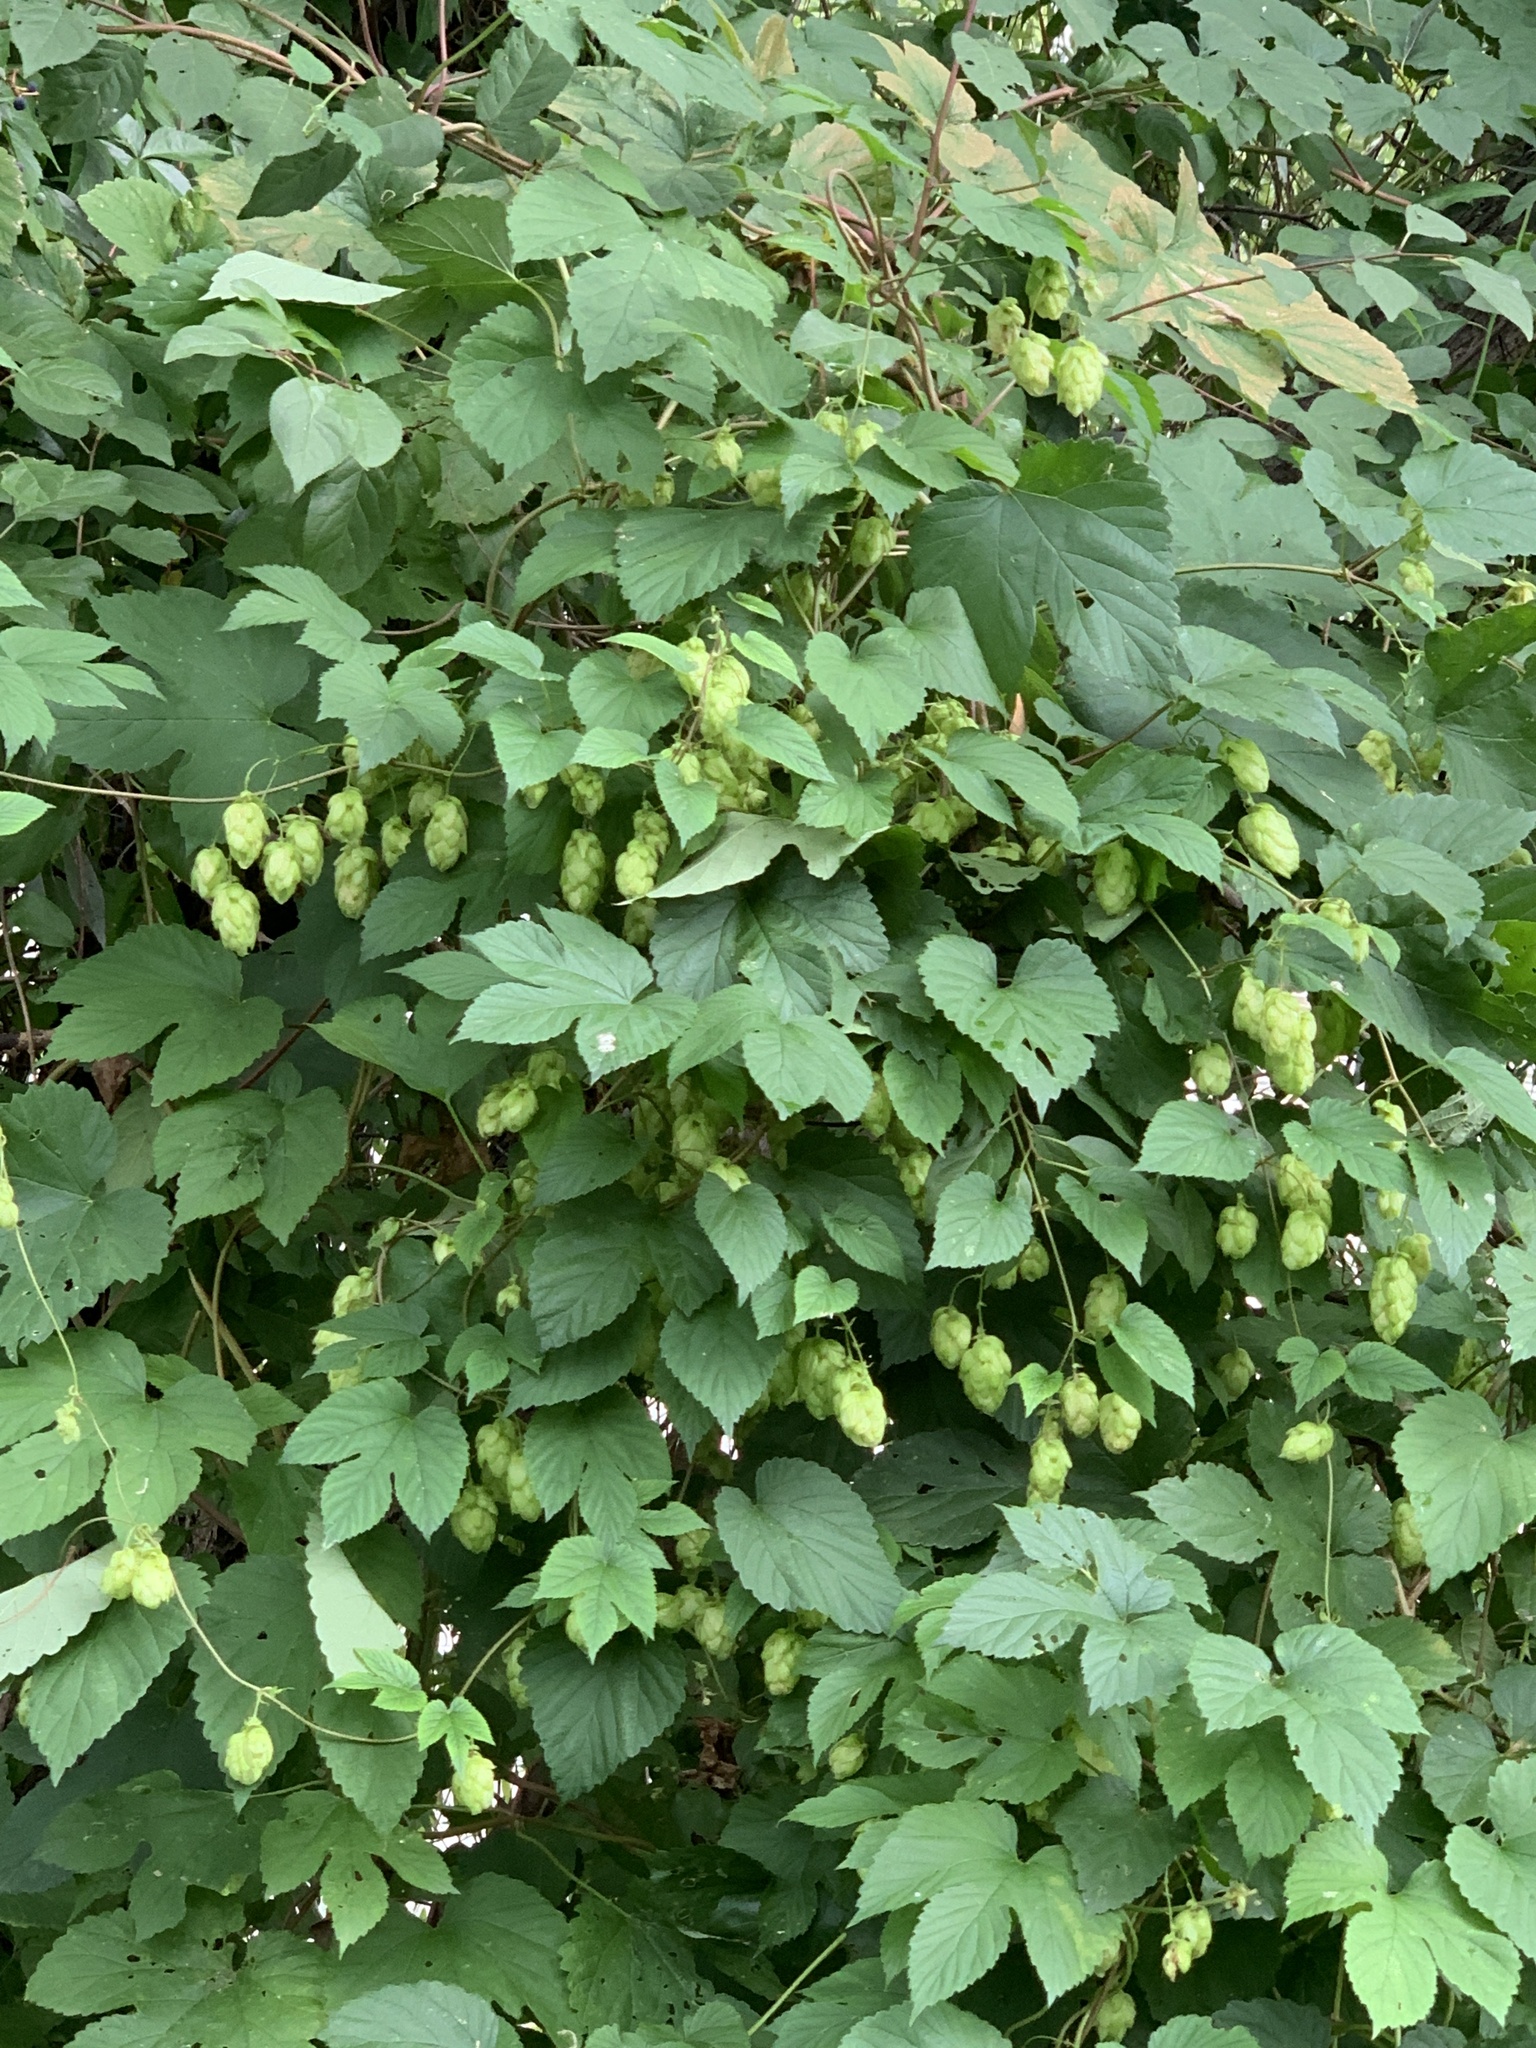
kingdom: Plantae
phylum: Tracheophyta
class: Magnoliopsida
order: Rosales
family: Cannabaceae
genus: Humulus
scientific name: Humulus lupulus
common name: Hop
